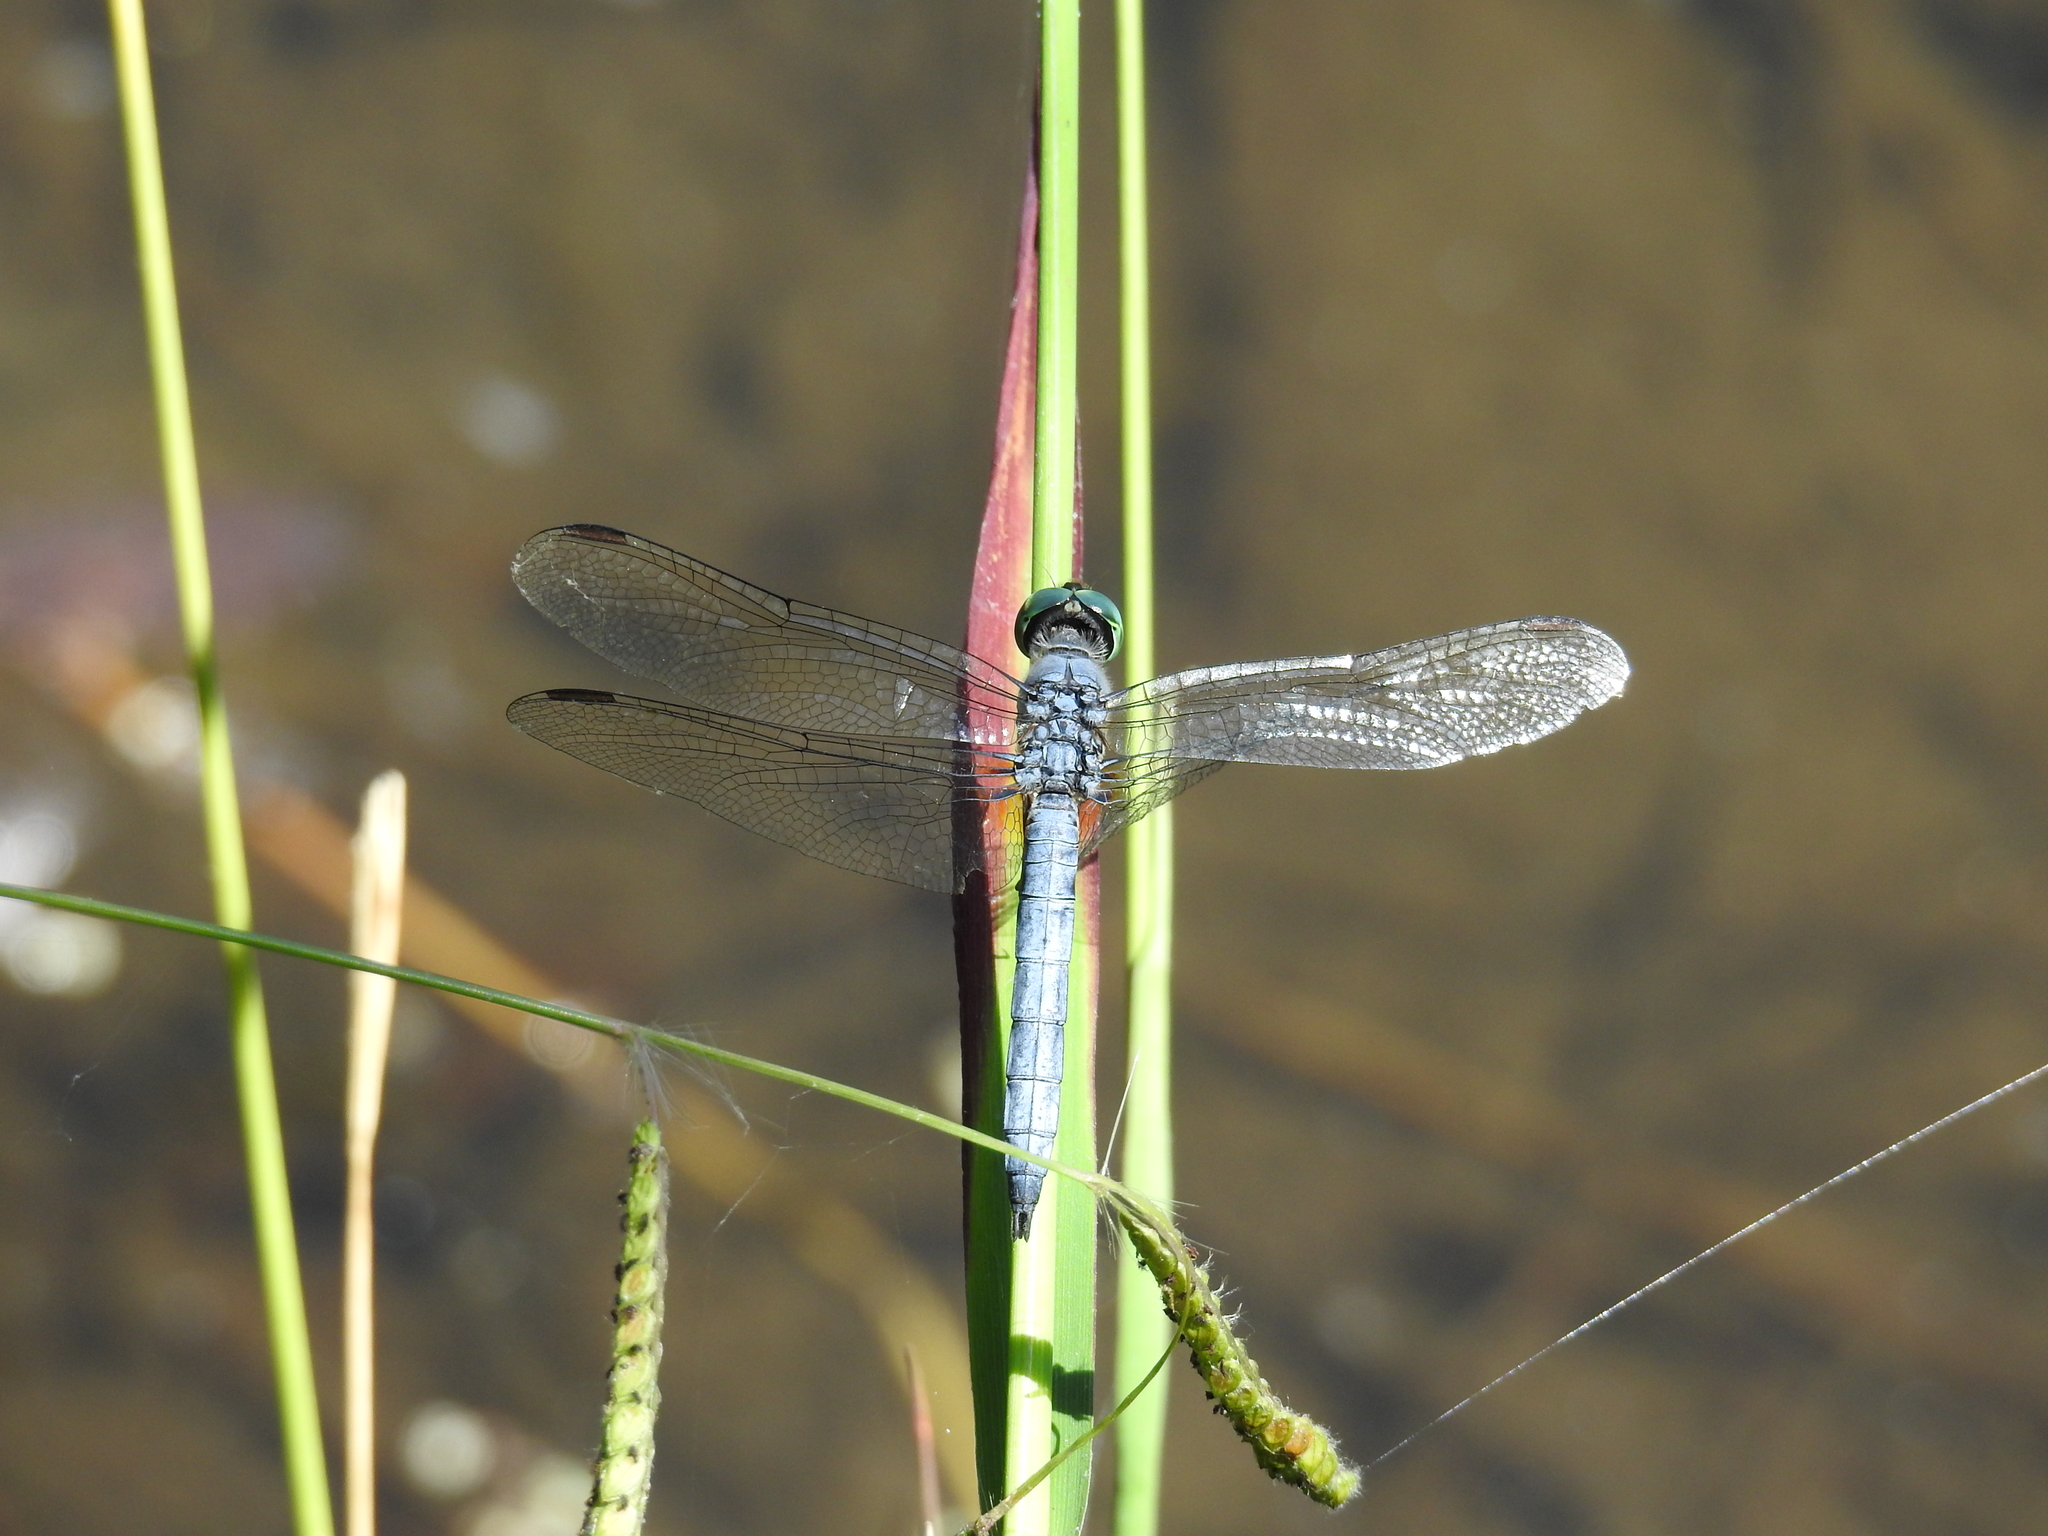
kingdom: Animalia
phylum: Arthropoda
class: Insecta
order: Odonata
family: Libellulidae
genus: Pachydiplax
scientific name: Pachydiplax longipennis
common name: Blue dasher
